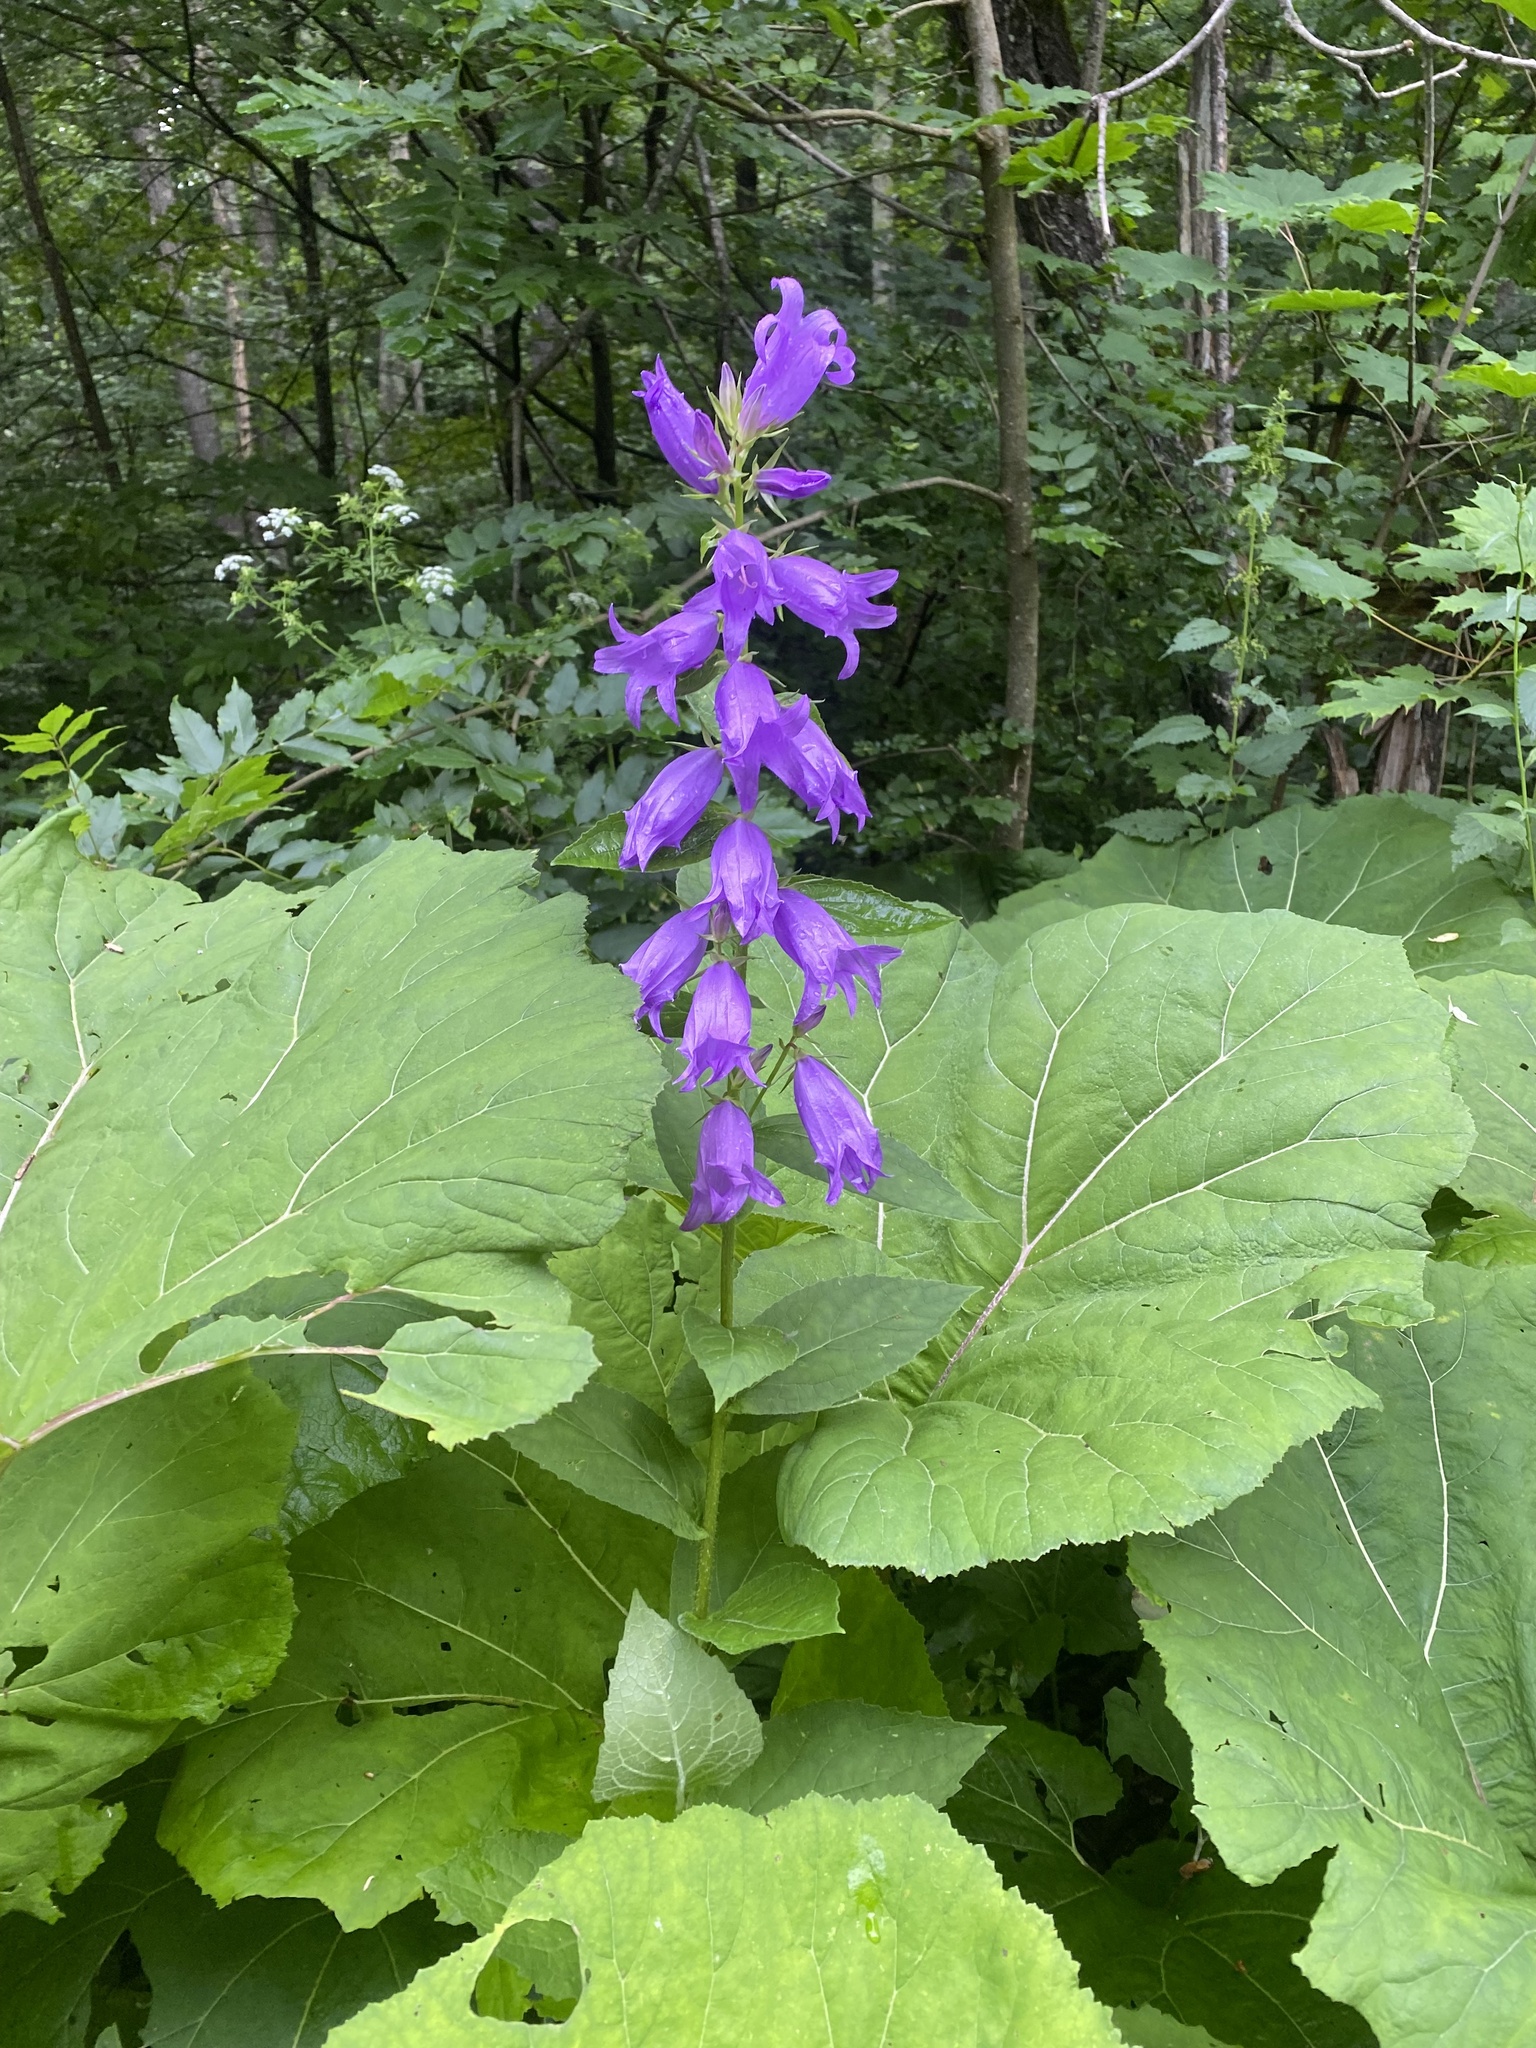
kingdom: Plantae
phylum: Tracheophyta
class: Magnoliopsida
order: Asterales
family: Campanulaceae
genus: Campanula
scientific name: Campanula latifolia
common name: Giant bellflower
